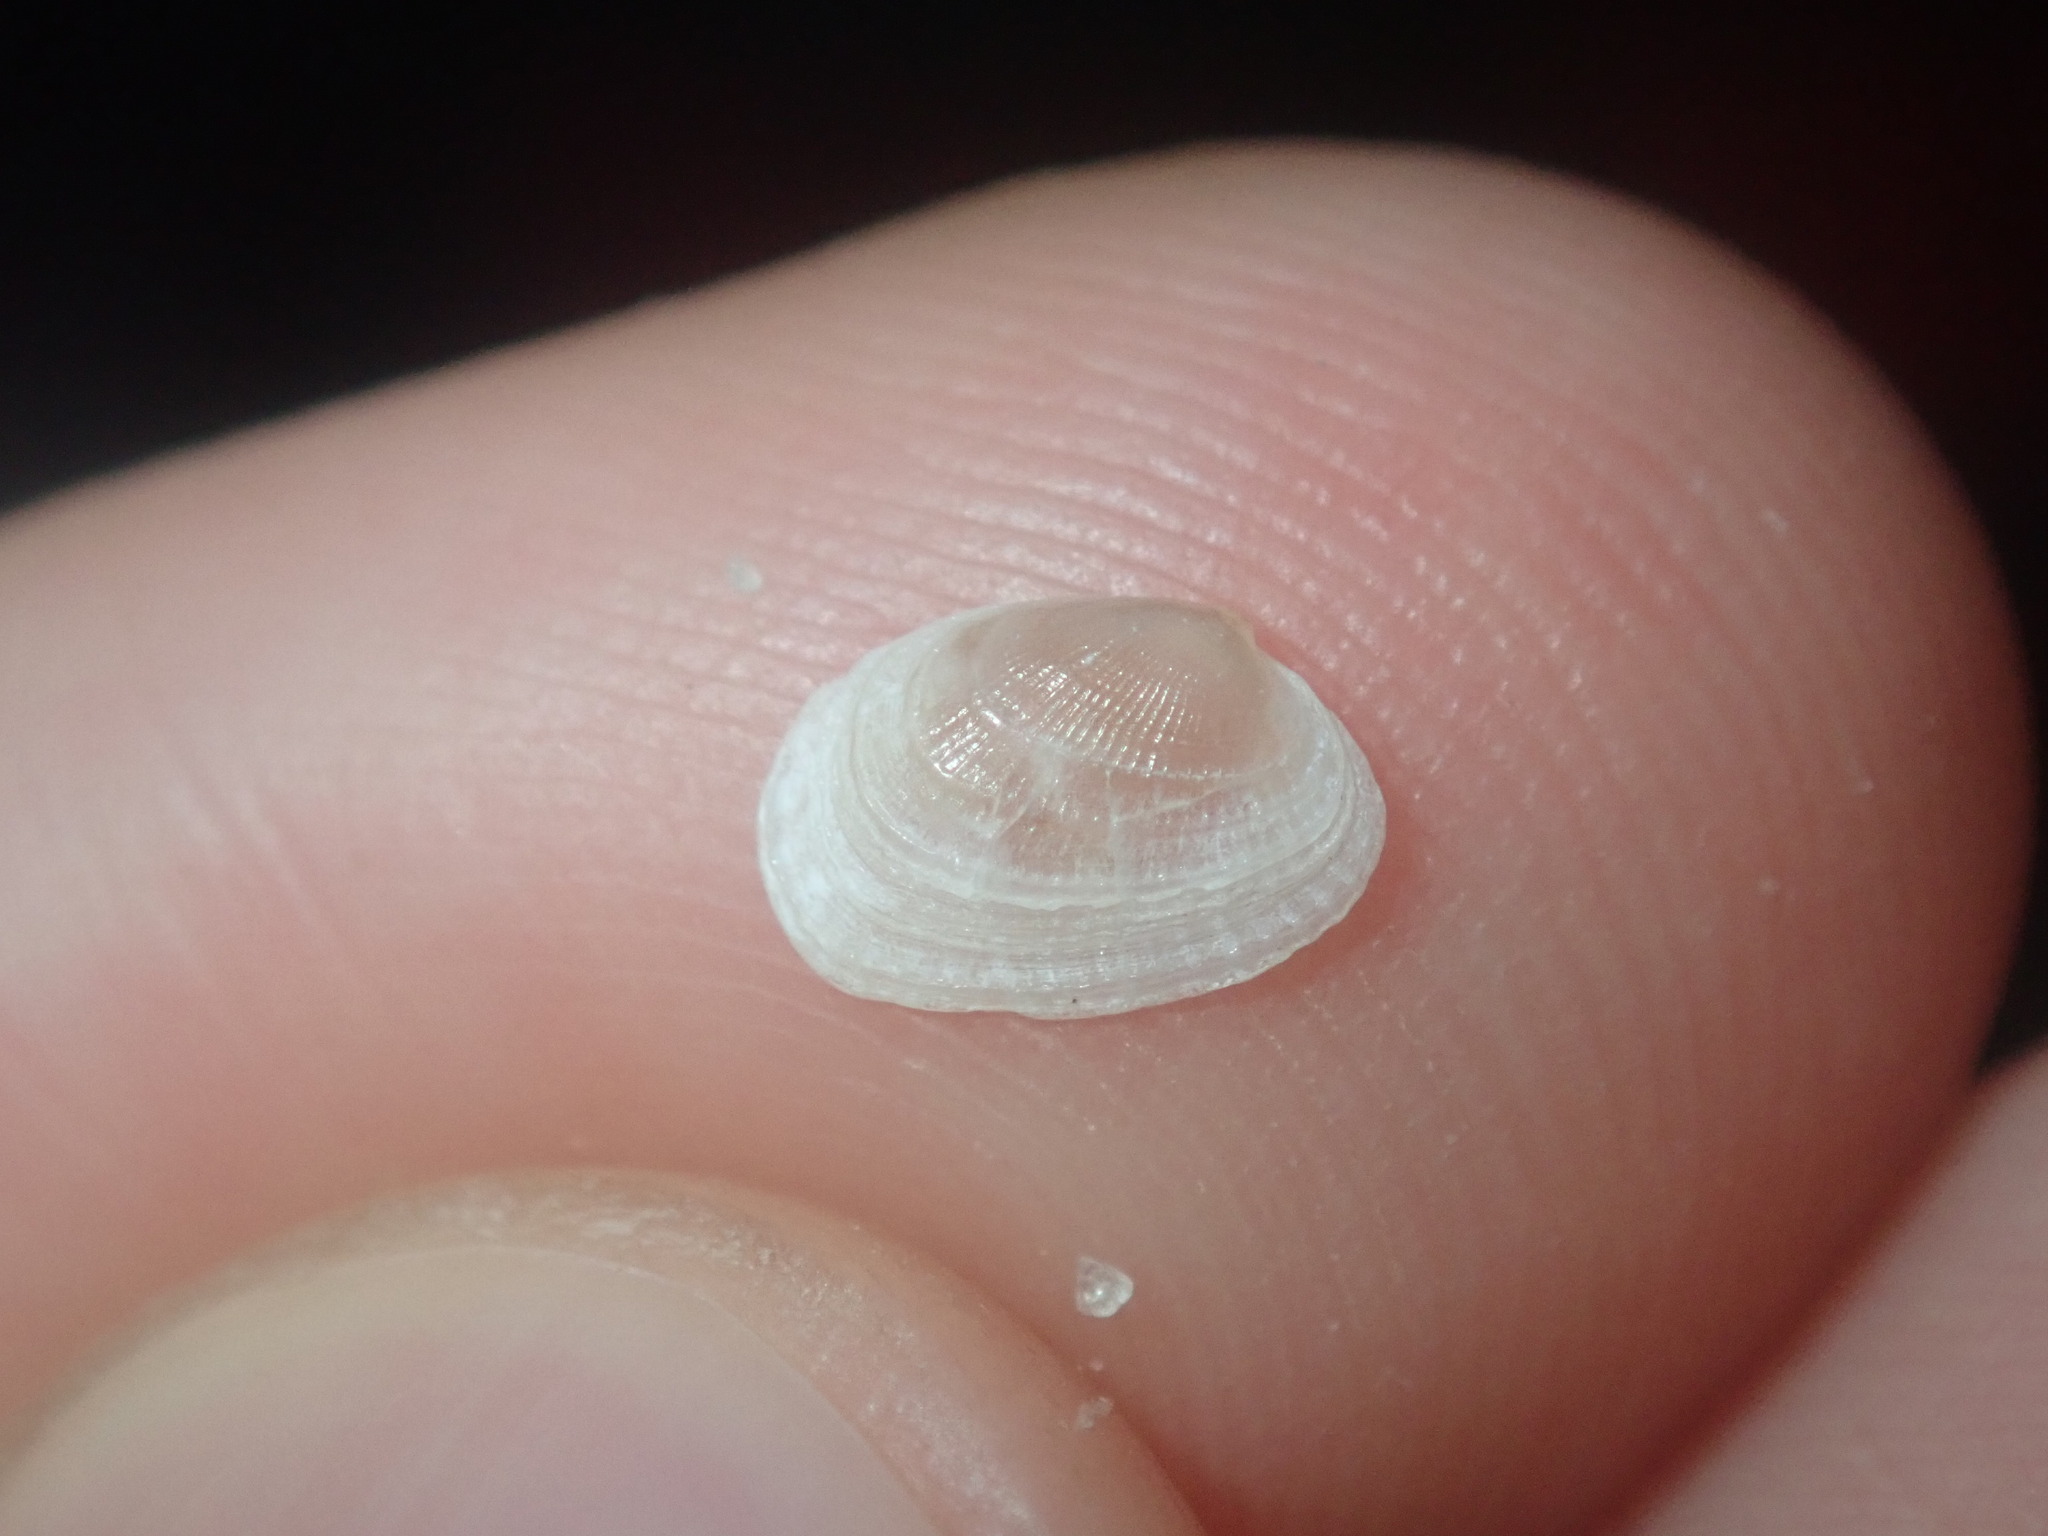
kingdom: Animalia
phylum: Mollusca
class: Bivalvia
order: Venerida
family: Veneridae
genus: Irus
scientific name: Irus crenatus
